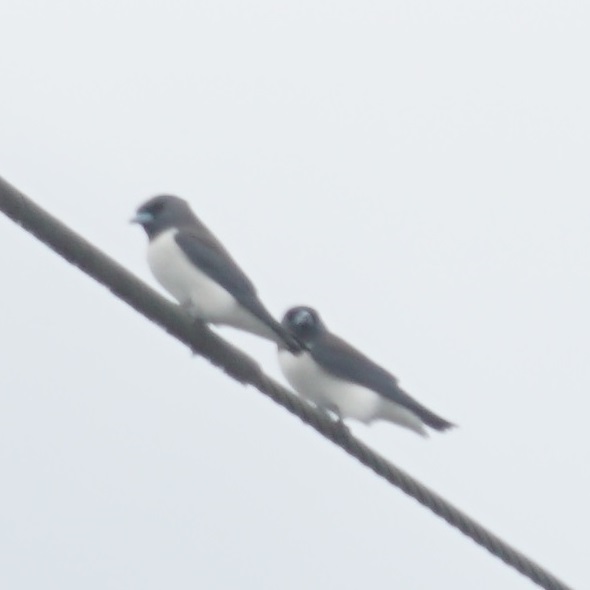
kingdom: Animalia
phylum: Chordata
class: Aves
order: Passeriformes
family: Artamidae
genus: Artamus
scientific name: Artamus leucoryn
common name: White-breasted woodswallow
